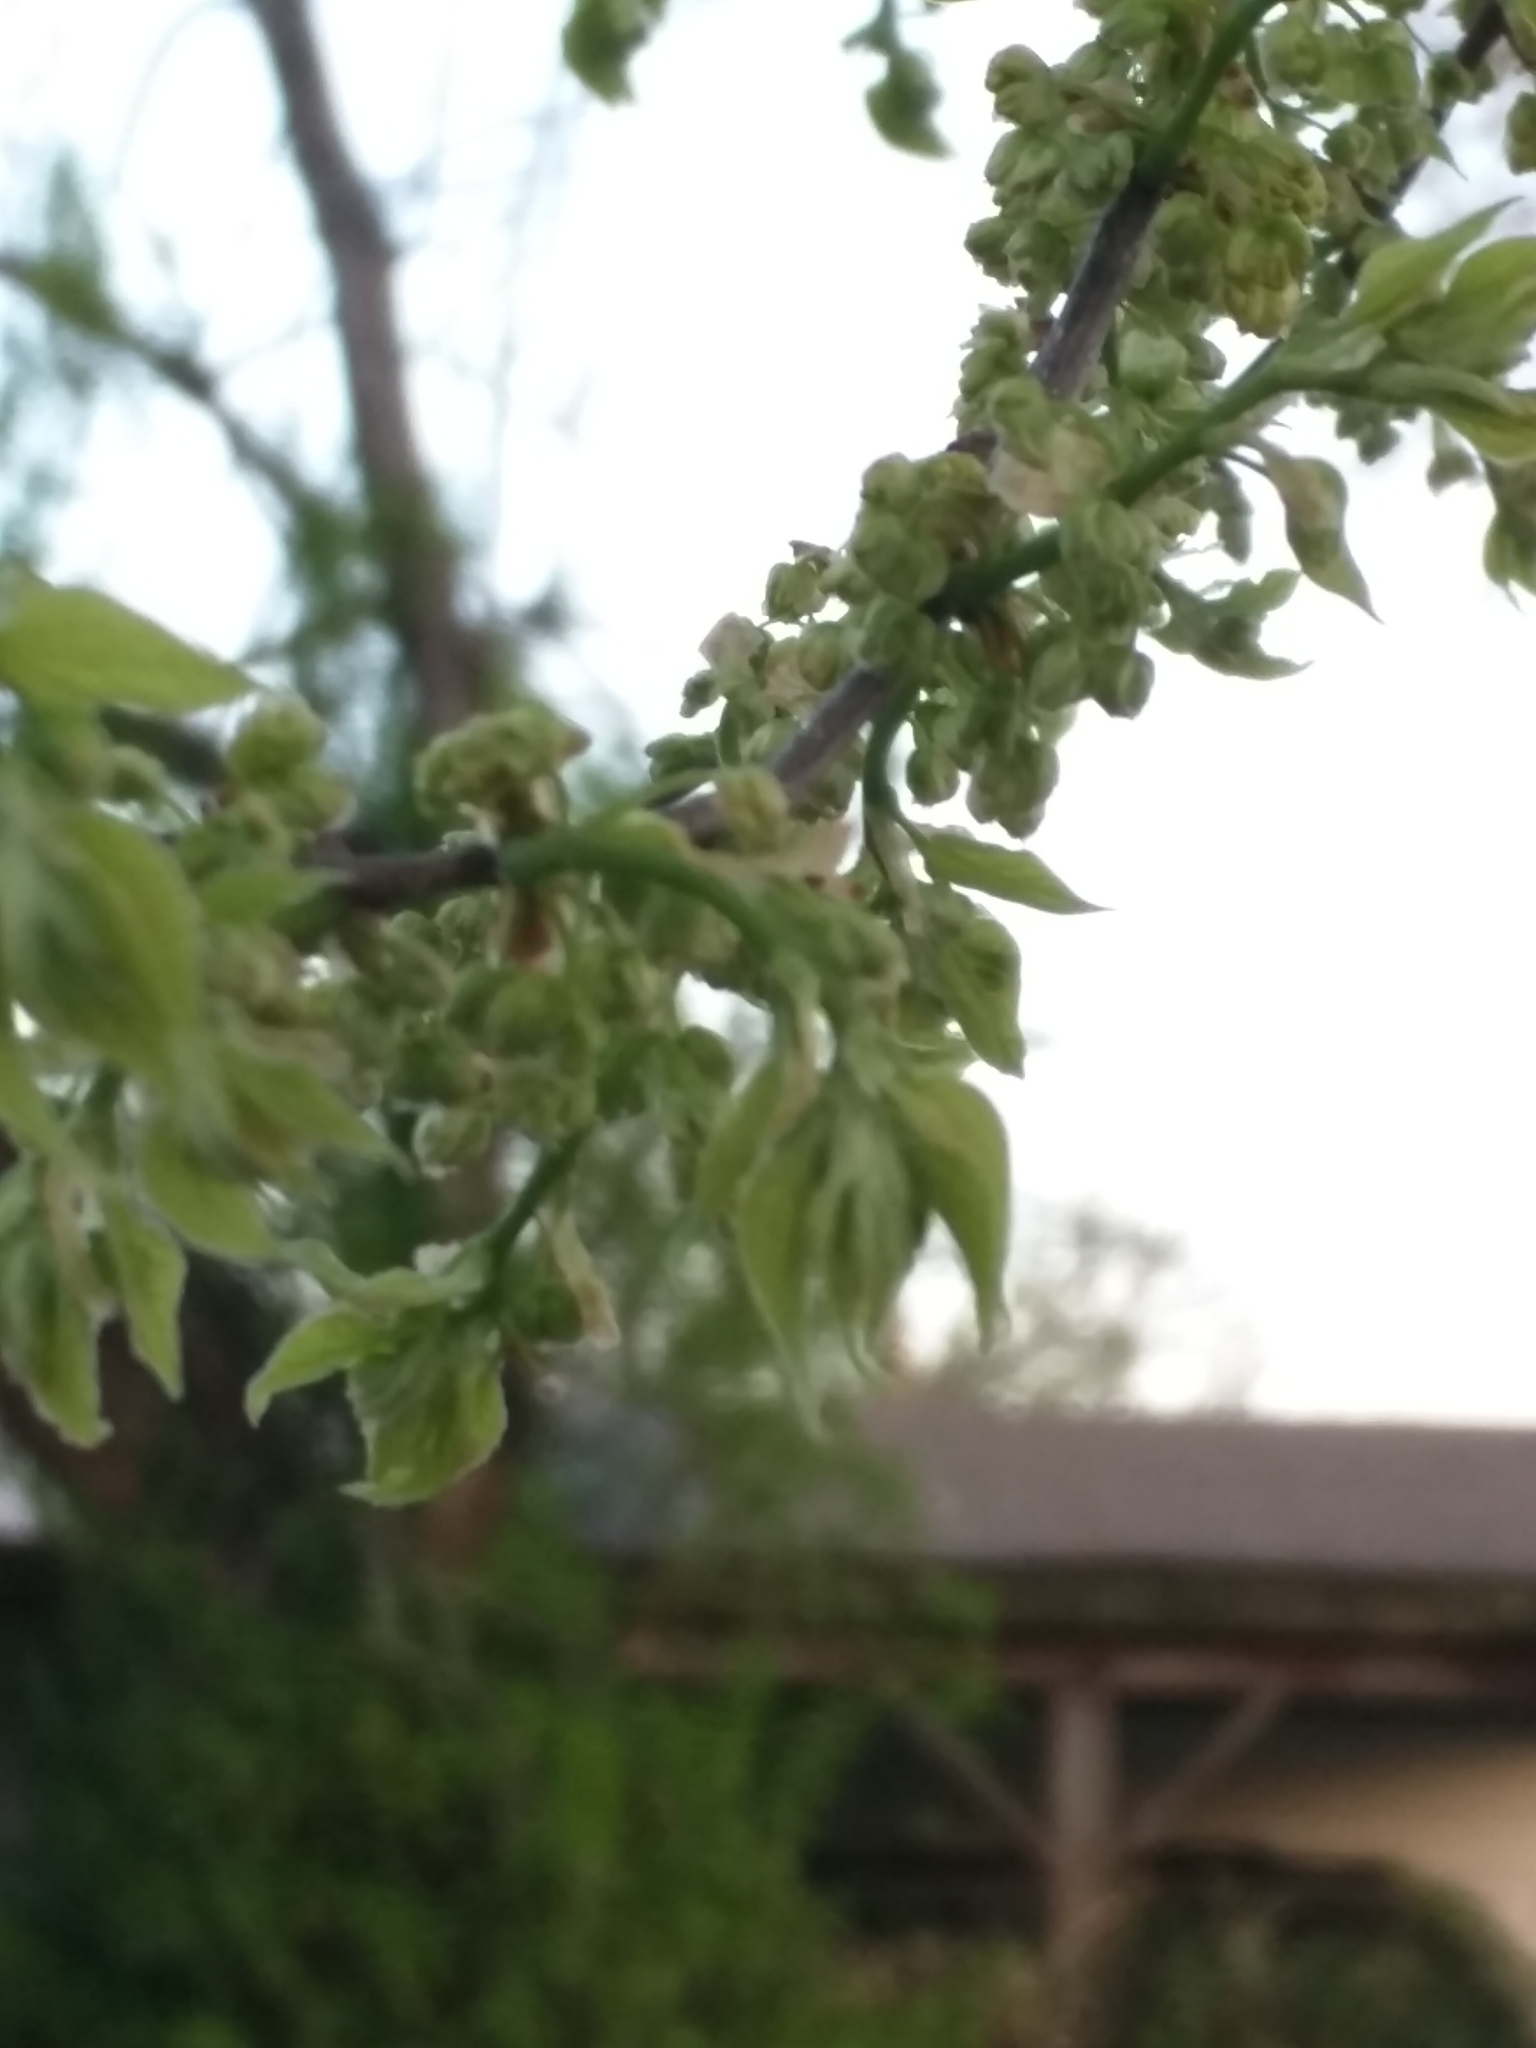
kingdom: Plantae
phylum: Tracheophyta
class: Magnoliopsida
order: Rosales
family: Cannabaceae
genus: Celtis
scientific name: Celtis occidentalis
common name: Common hackberry
